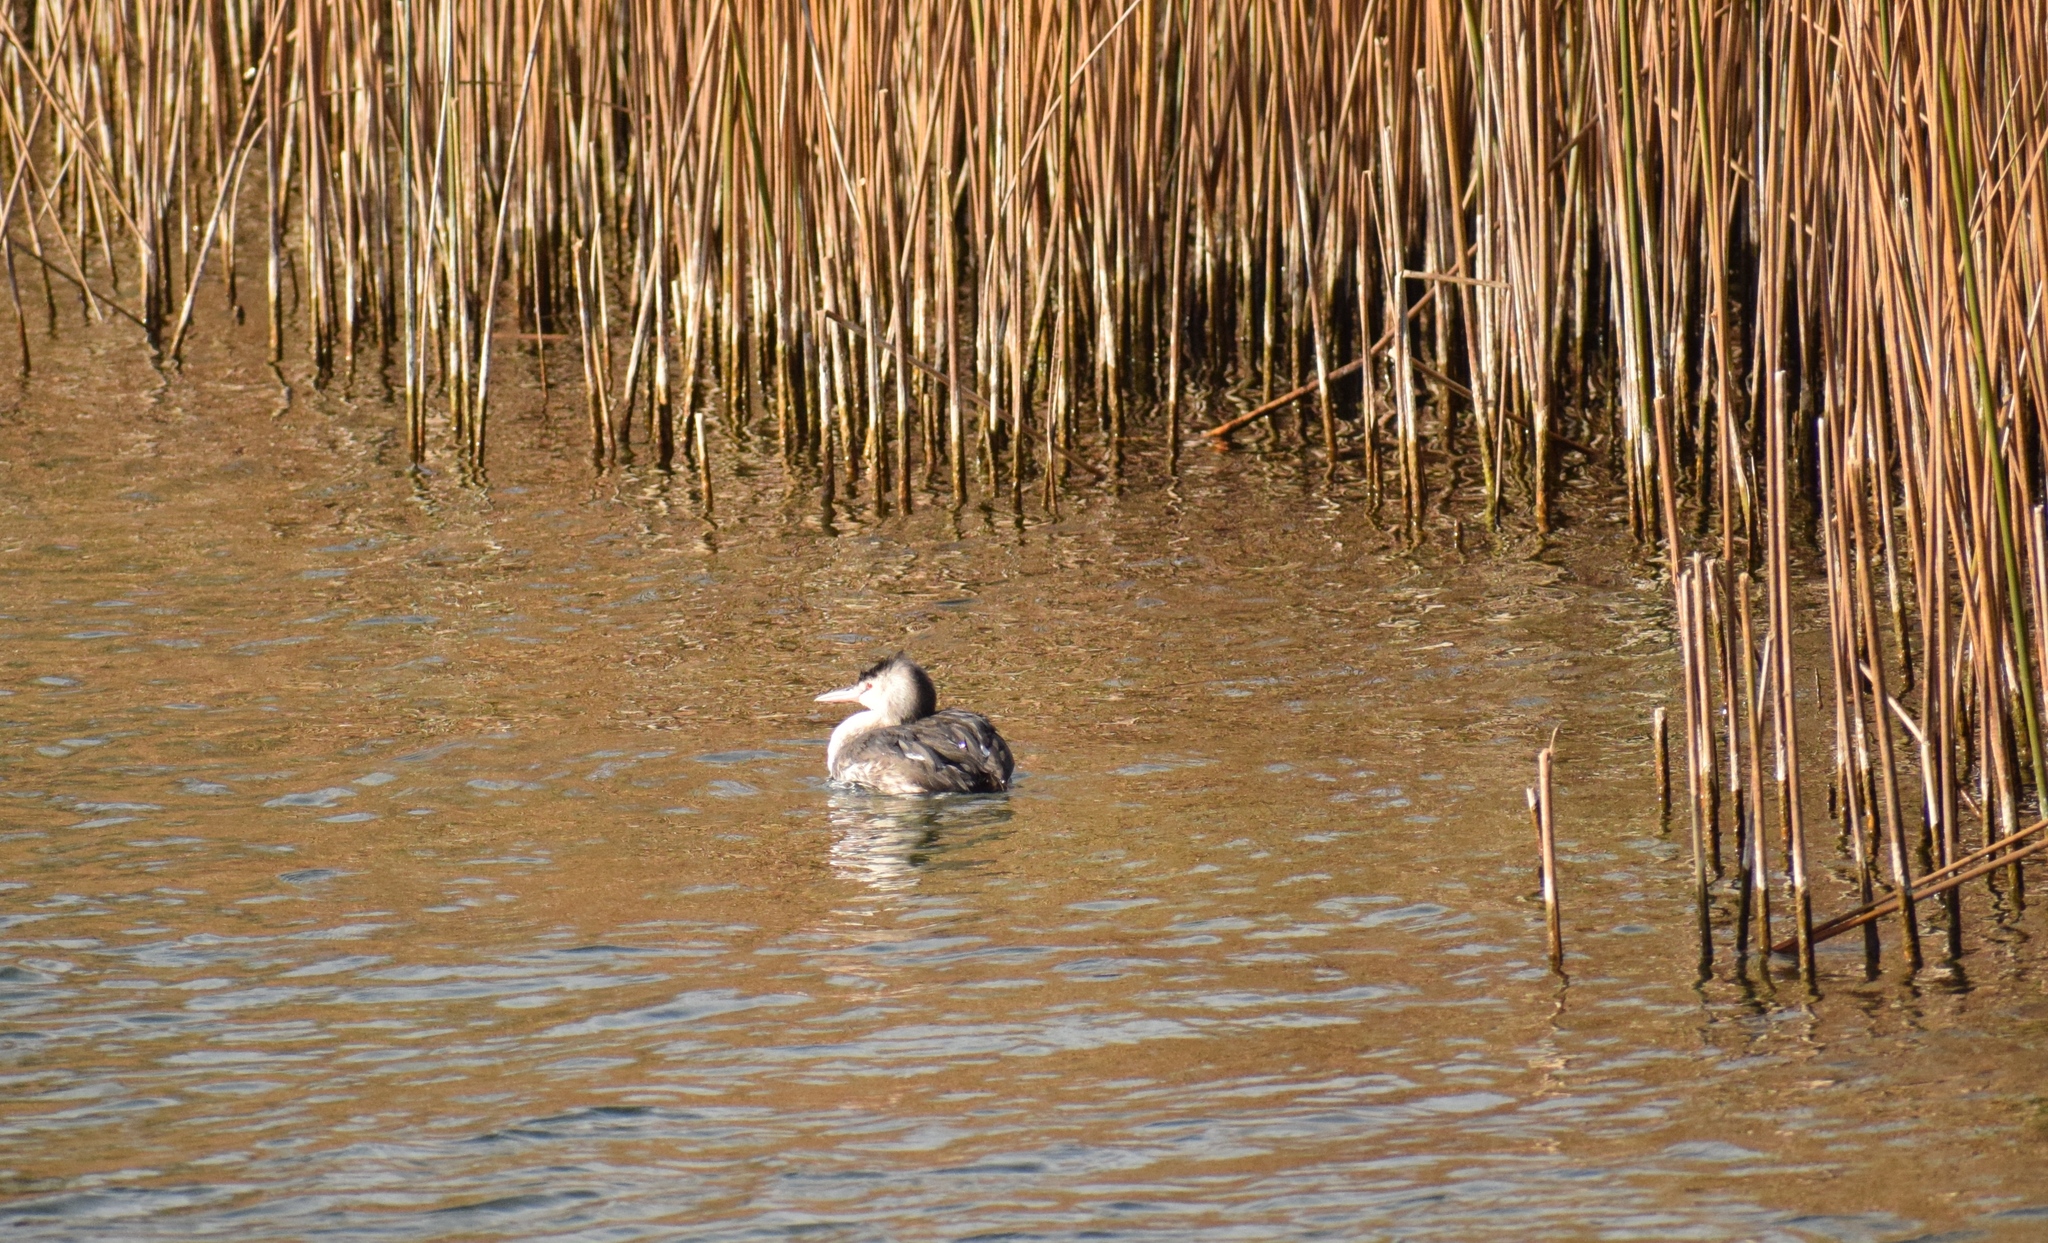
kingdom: Animalia
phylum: Chordata
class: Aves
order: Podicipediformes
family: Podicipedidae
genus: Podiceps
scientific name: Podiceps cristatus
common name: Great crested grebe
